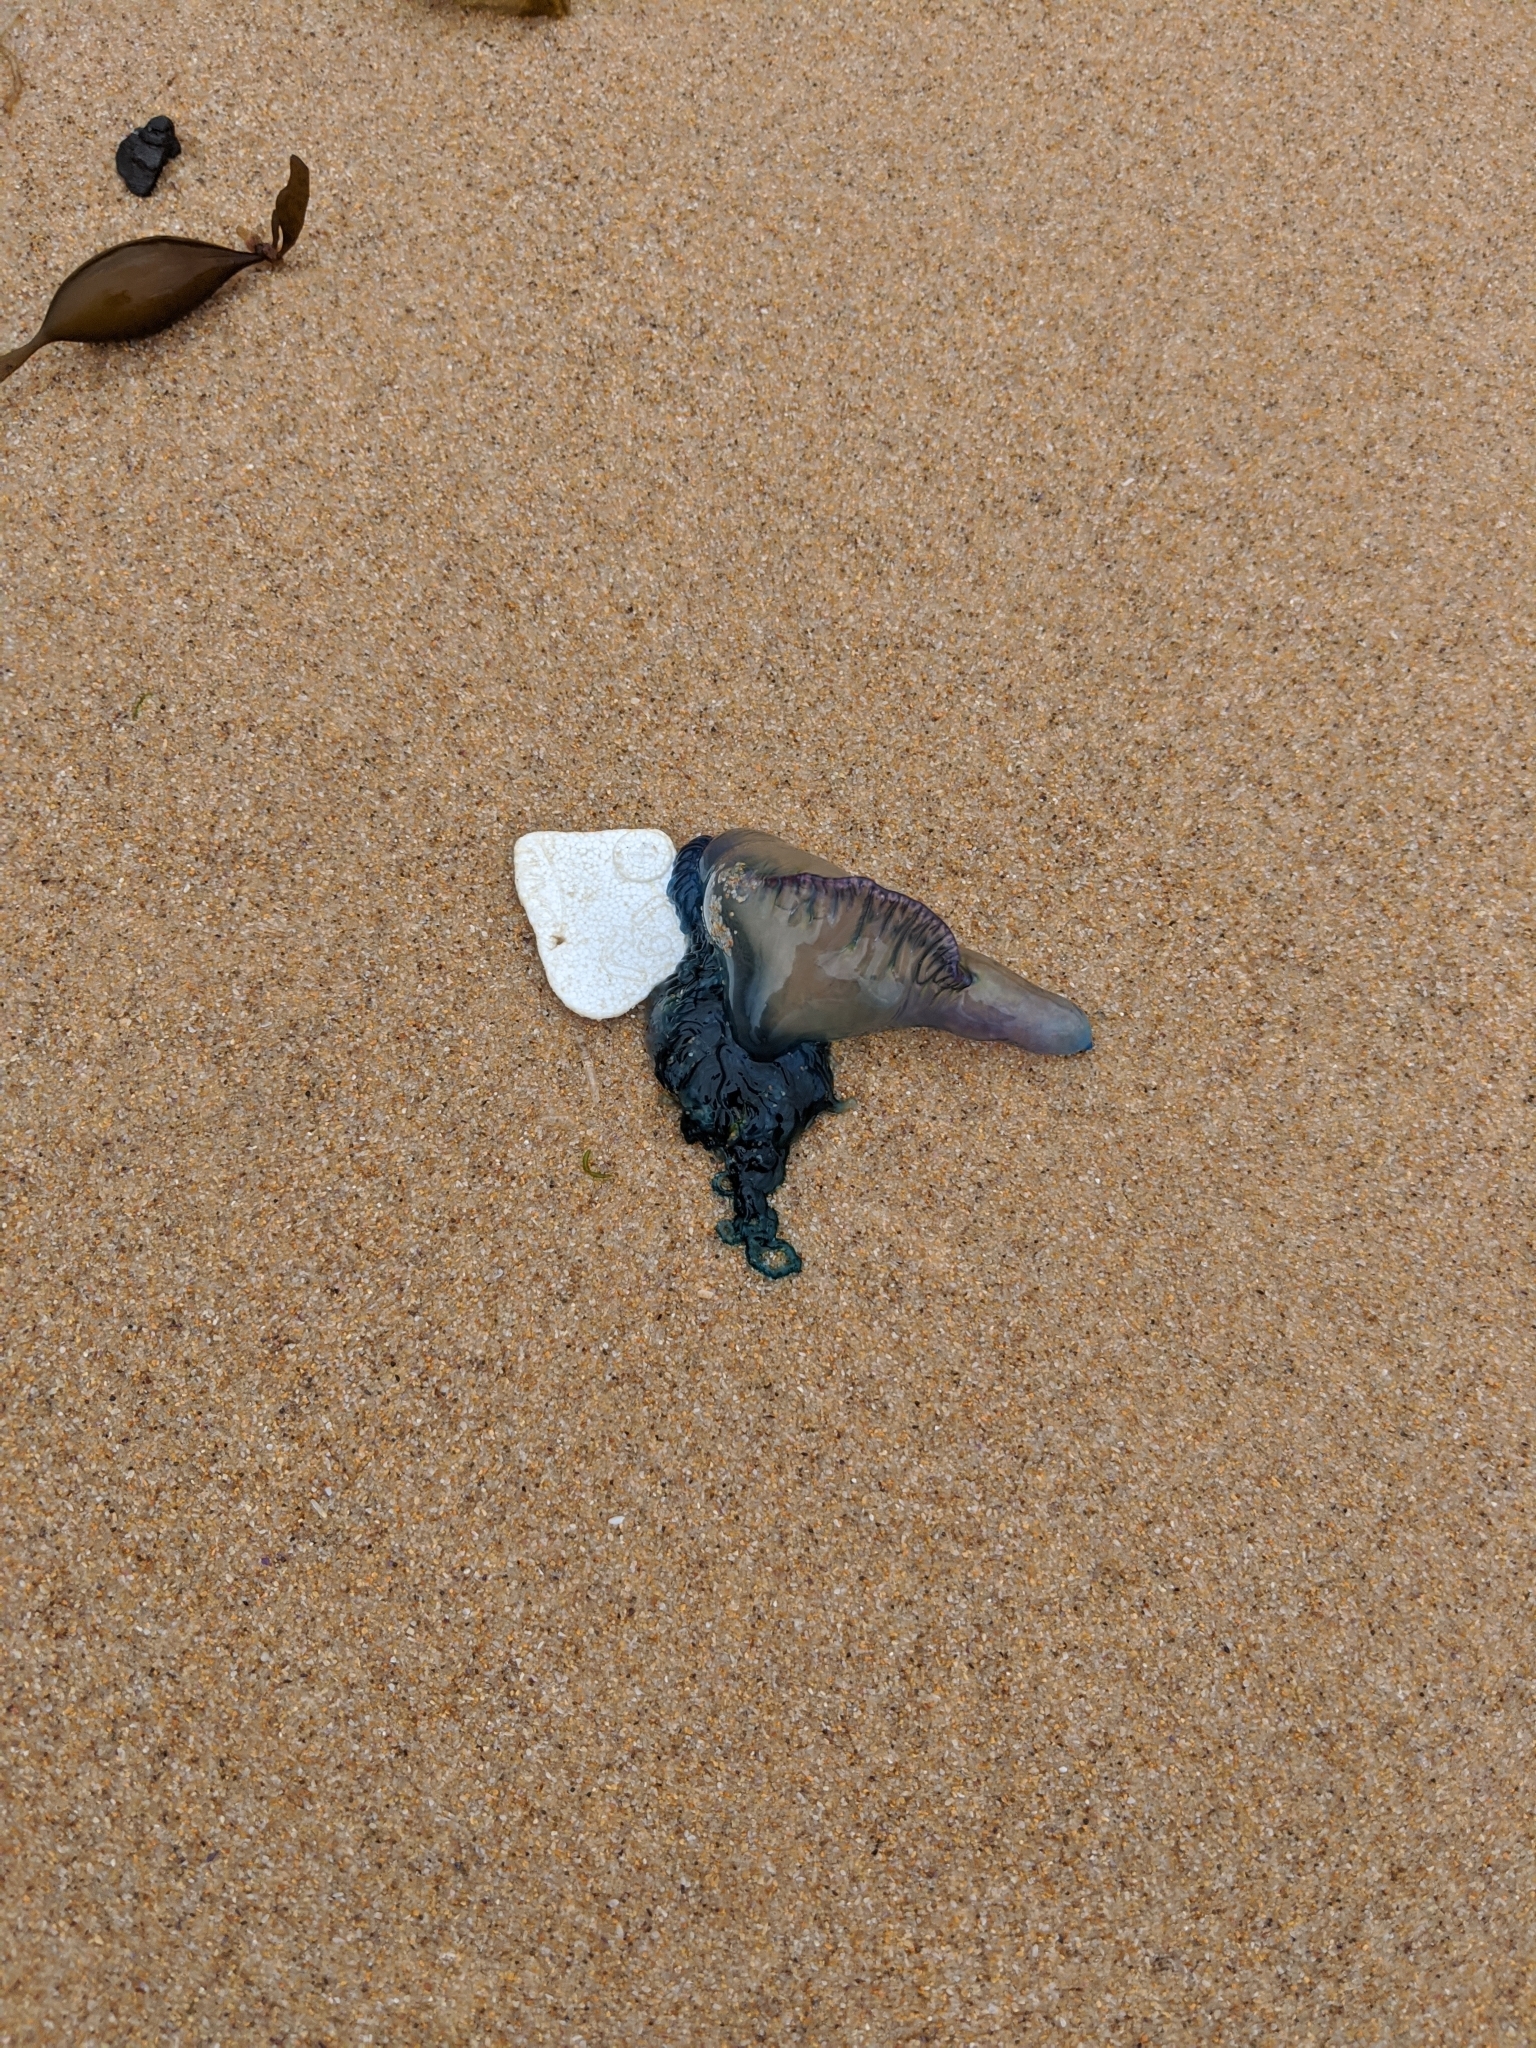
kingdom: Animalia
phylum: Cnidaria
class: Hydrozoa
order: Siphonophorae
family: Physaliidae
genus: Physalia
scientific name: Physalia physalis
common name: Portuguese man-of-war
